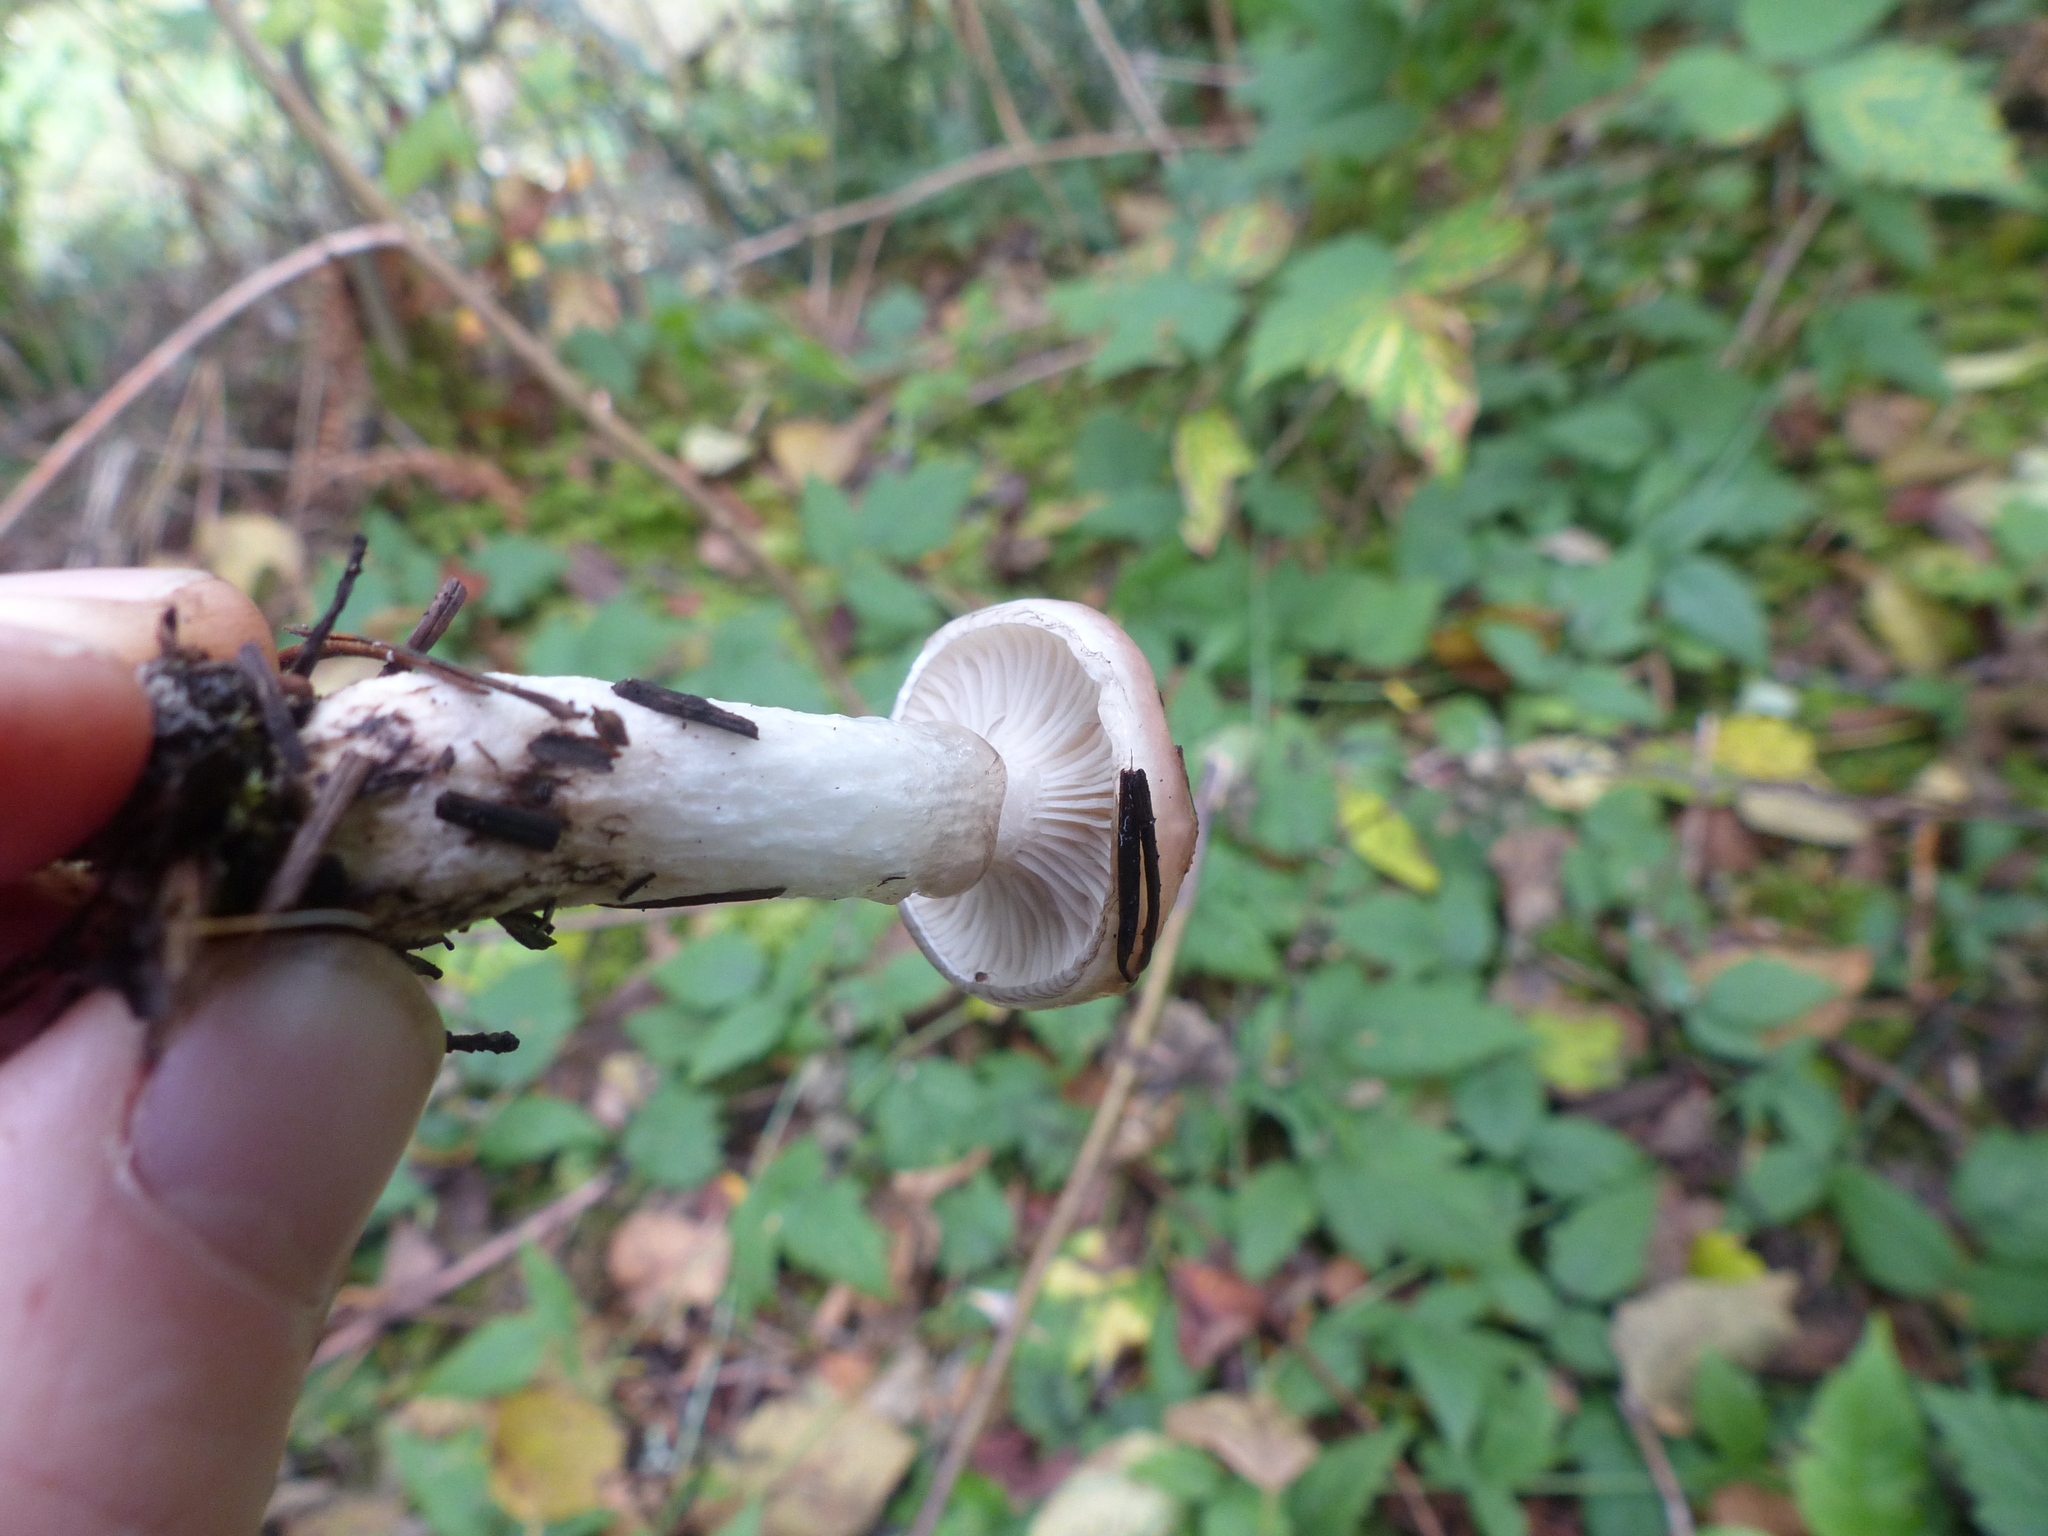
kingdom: Fungi
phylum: Basidiomycota
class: Agaricomycetes
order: Boletales
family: Gomphidiaceae
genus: Gomphidius
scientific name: Gomphidius subroseus
